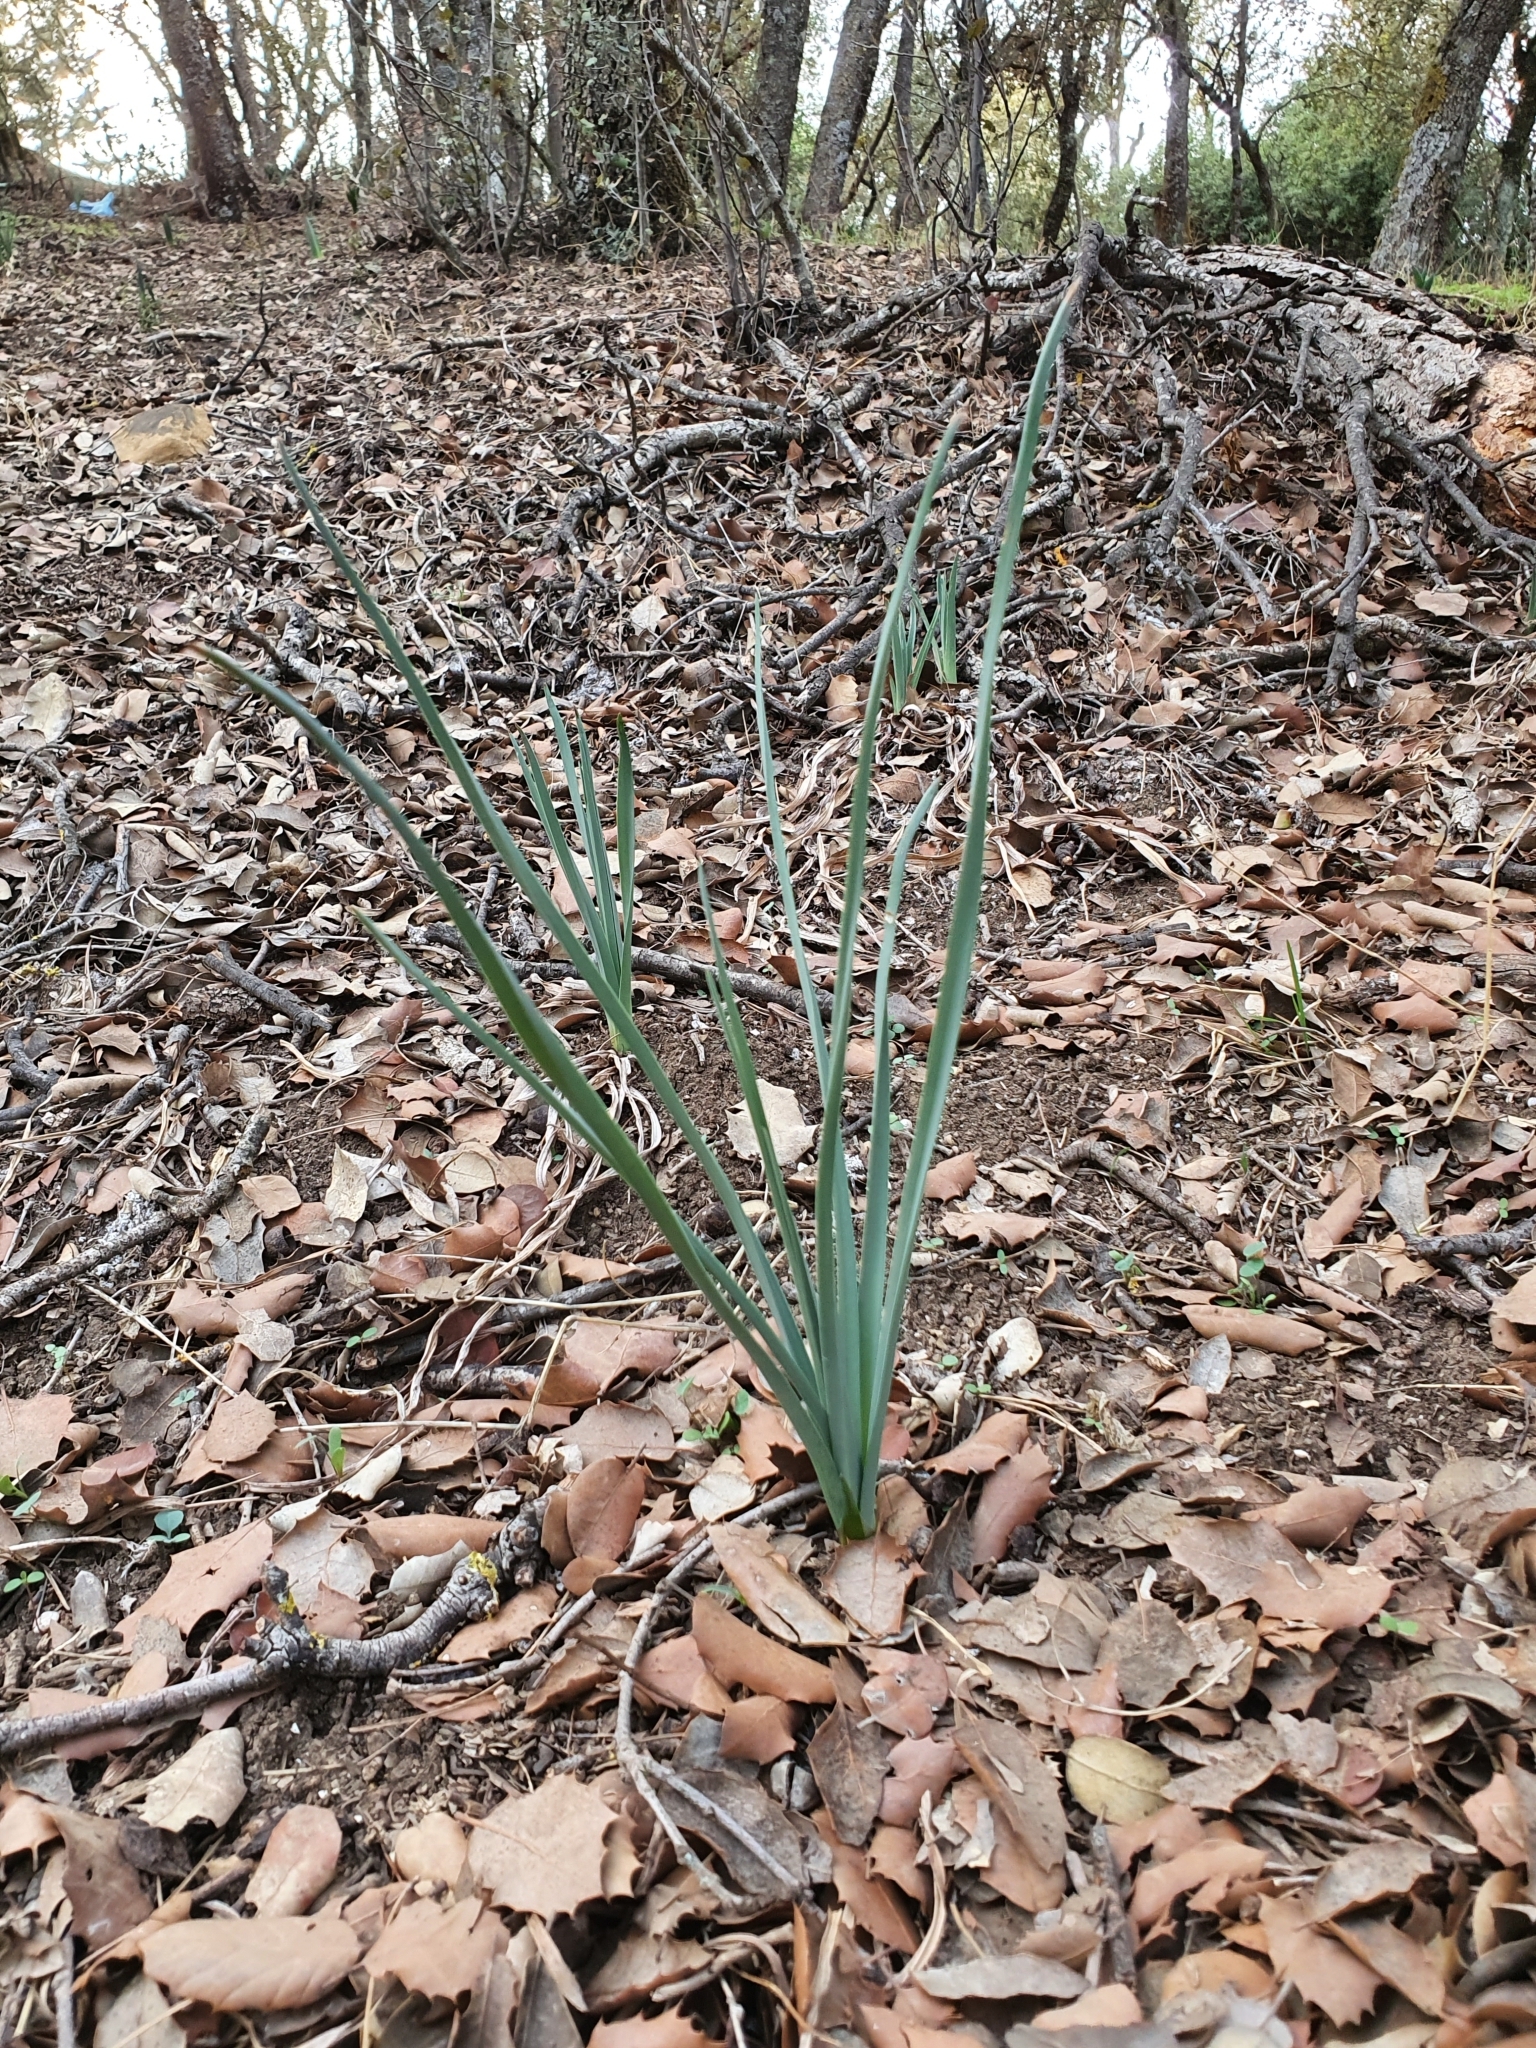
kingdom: Plantae
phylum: Tracheophyta
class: Liliopsida
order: Asparagales
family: Asphodelaceae
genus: Asphodelus
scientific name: Asphodelus ramosus
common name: Silverrod
